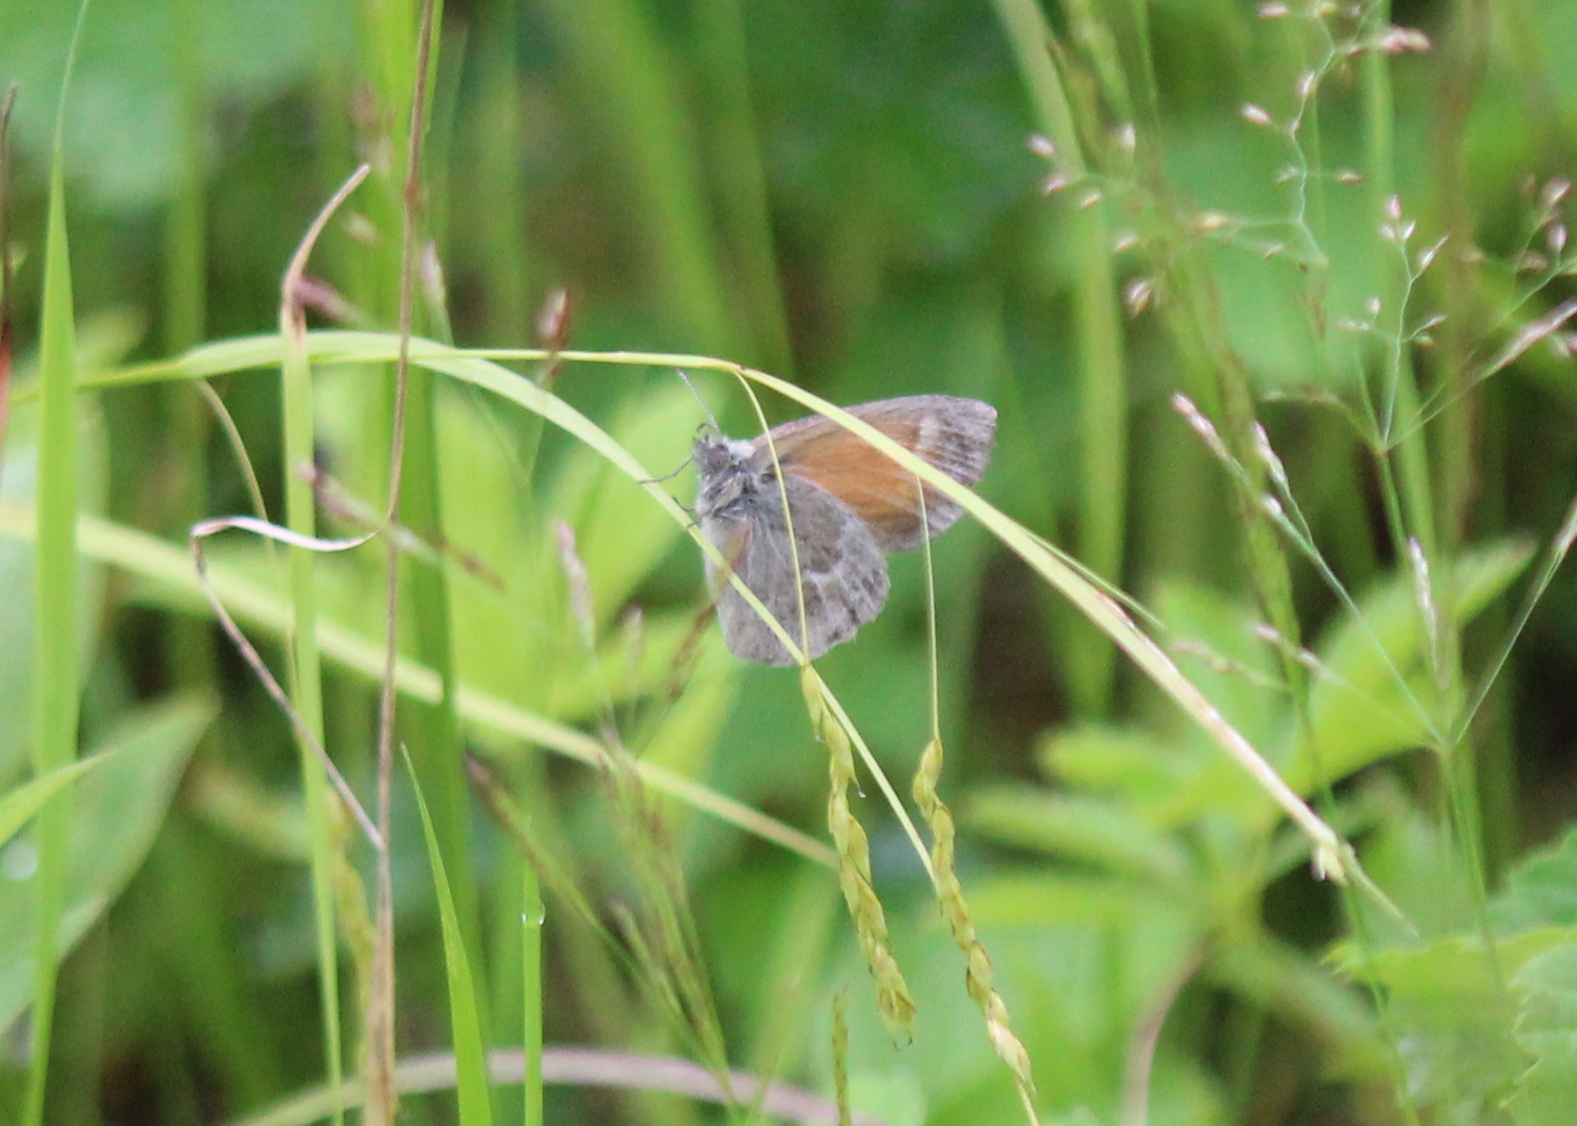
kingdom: Animalia
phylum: Arthropoda
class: Insecta
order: Lepidoptera
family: Nymphalidae
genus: Coenonympha
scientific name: Coenonympha california
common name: Common ringlet
